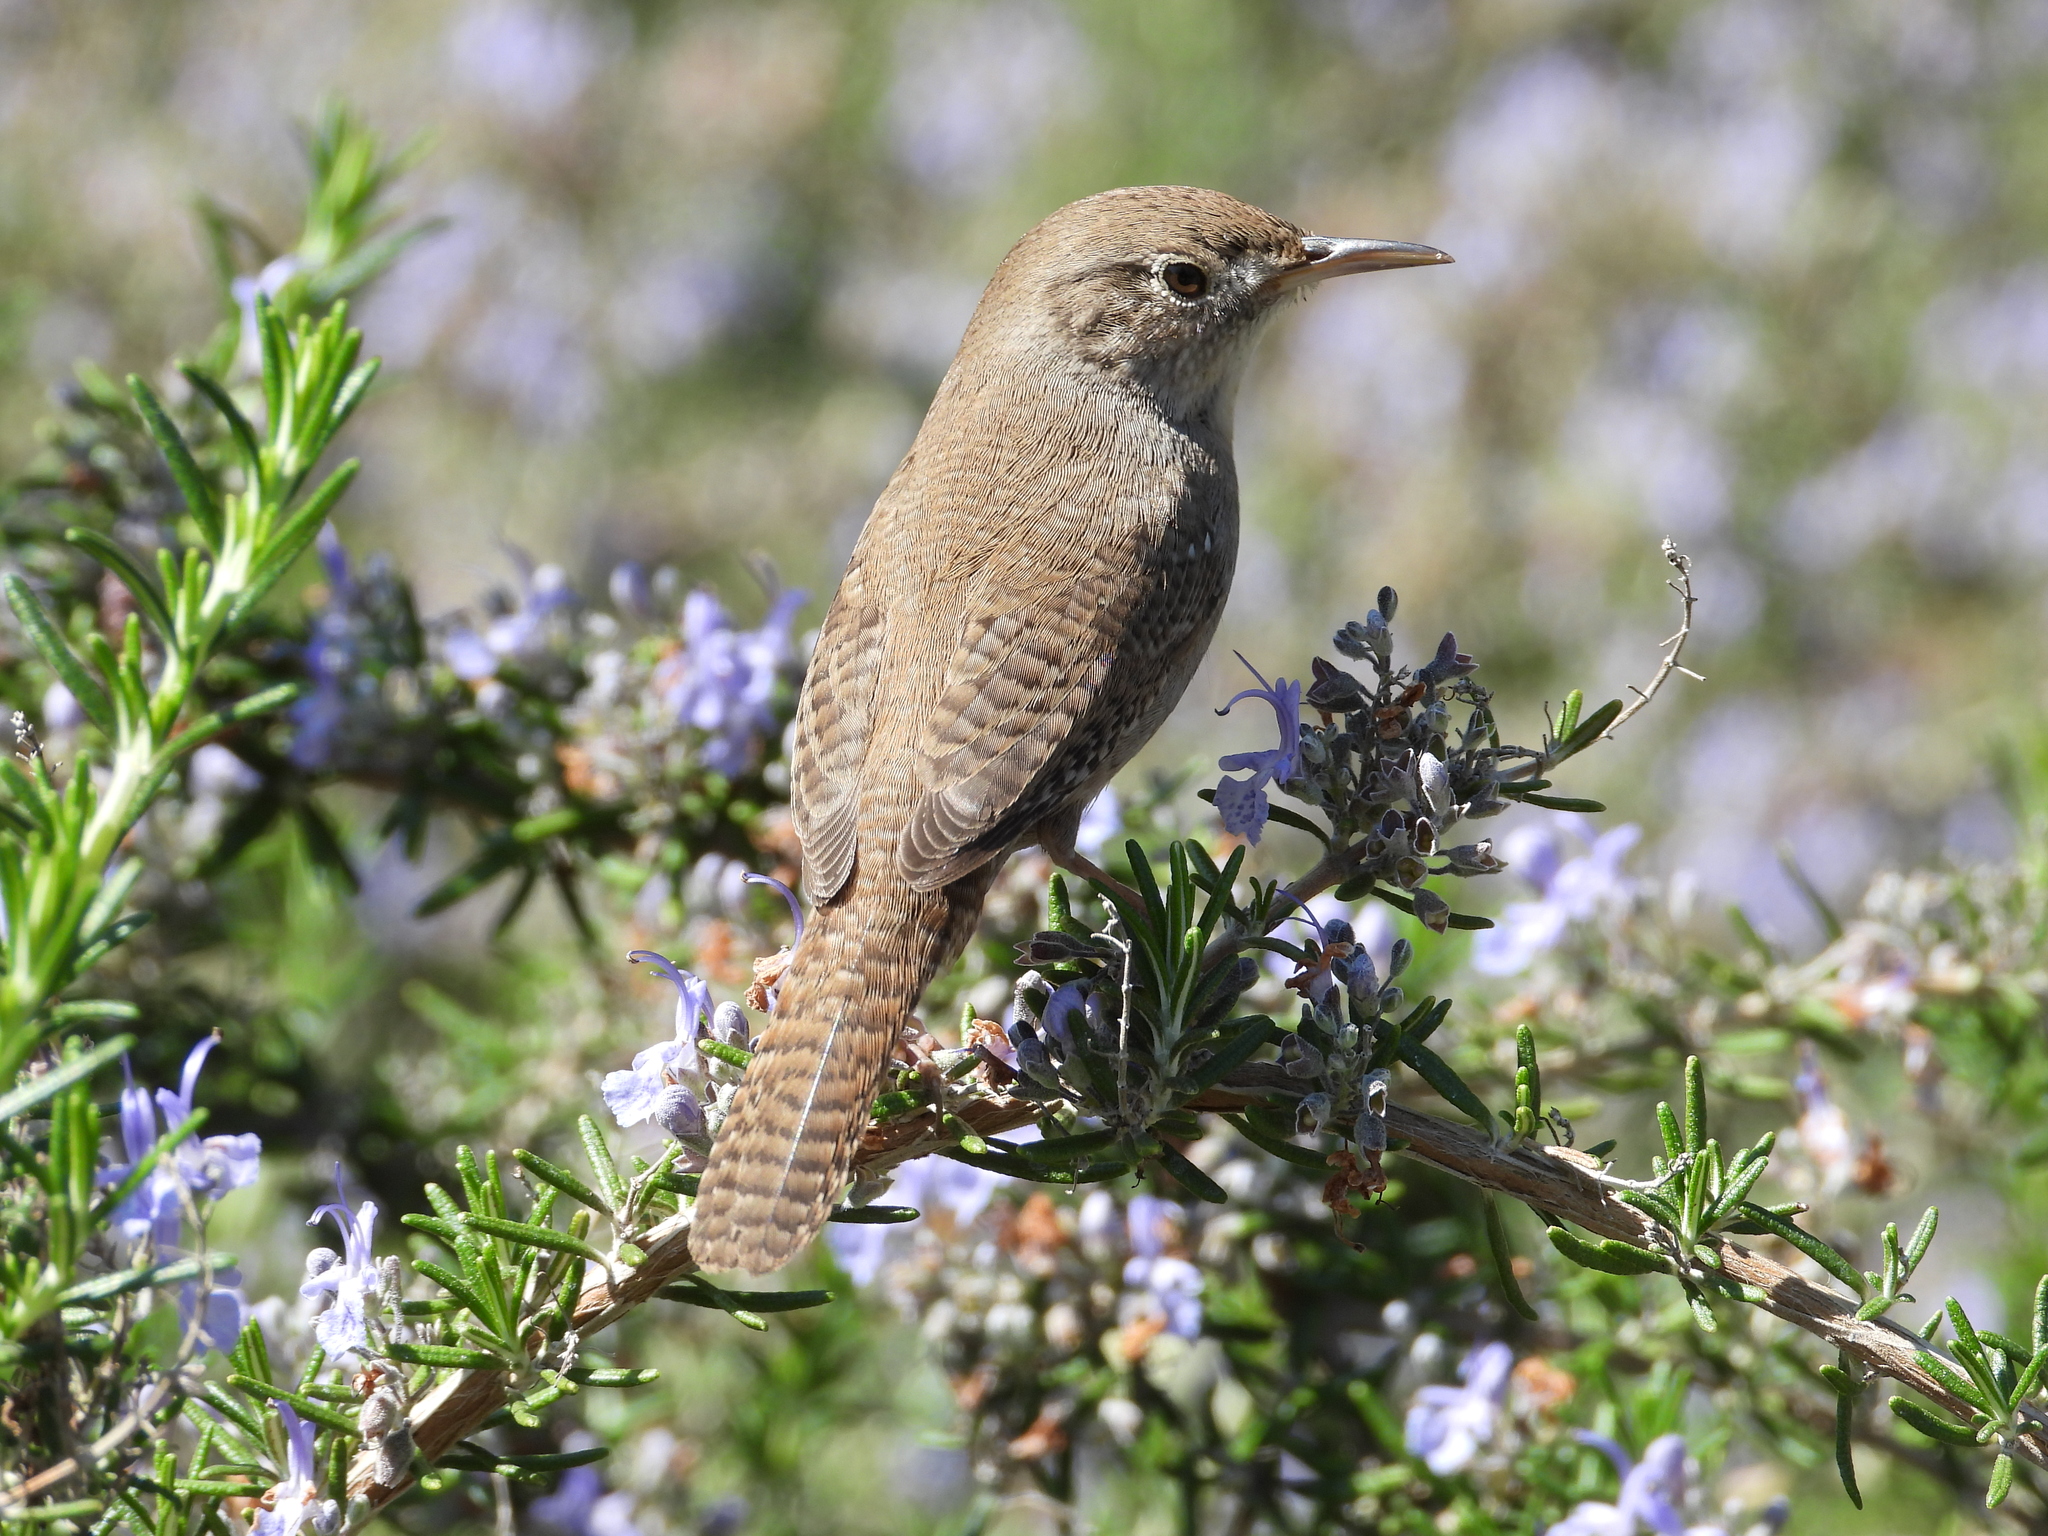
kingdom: Animalia
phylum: Chordata
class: Aves
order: Passeriformes
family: Troglodytidae
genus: Troglodytes
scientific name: Troglodytes aedon
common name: House wren
